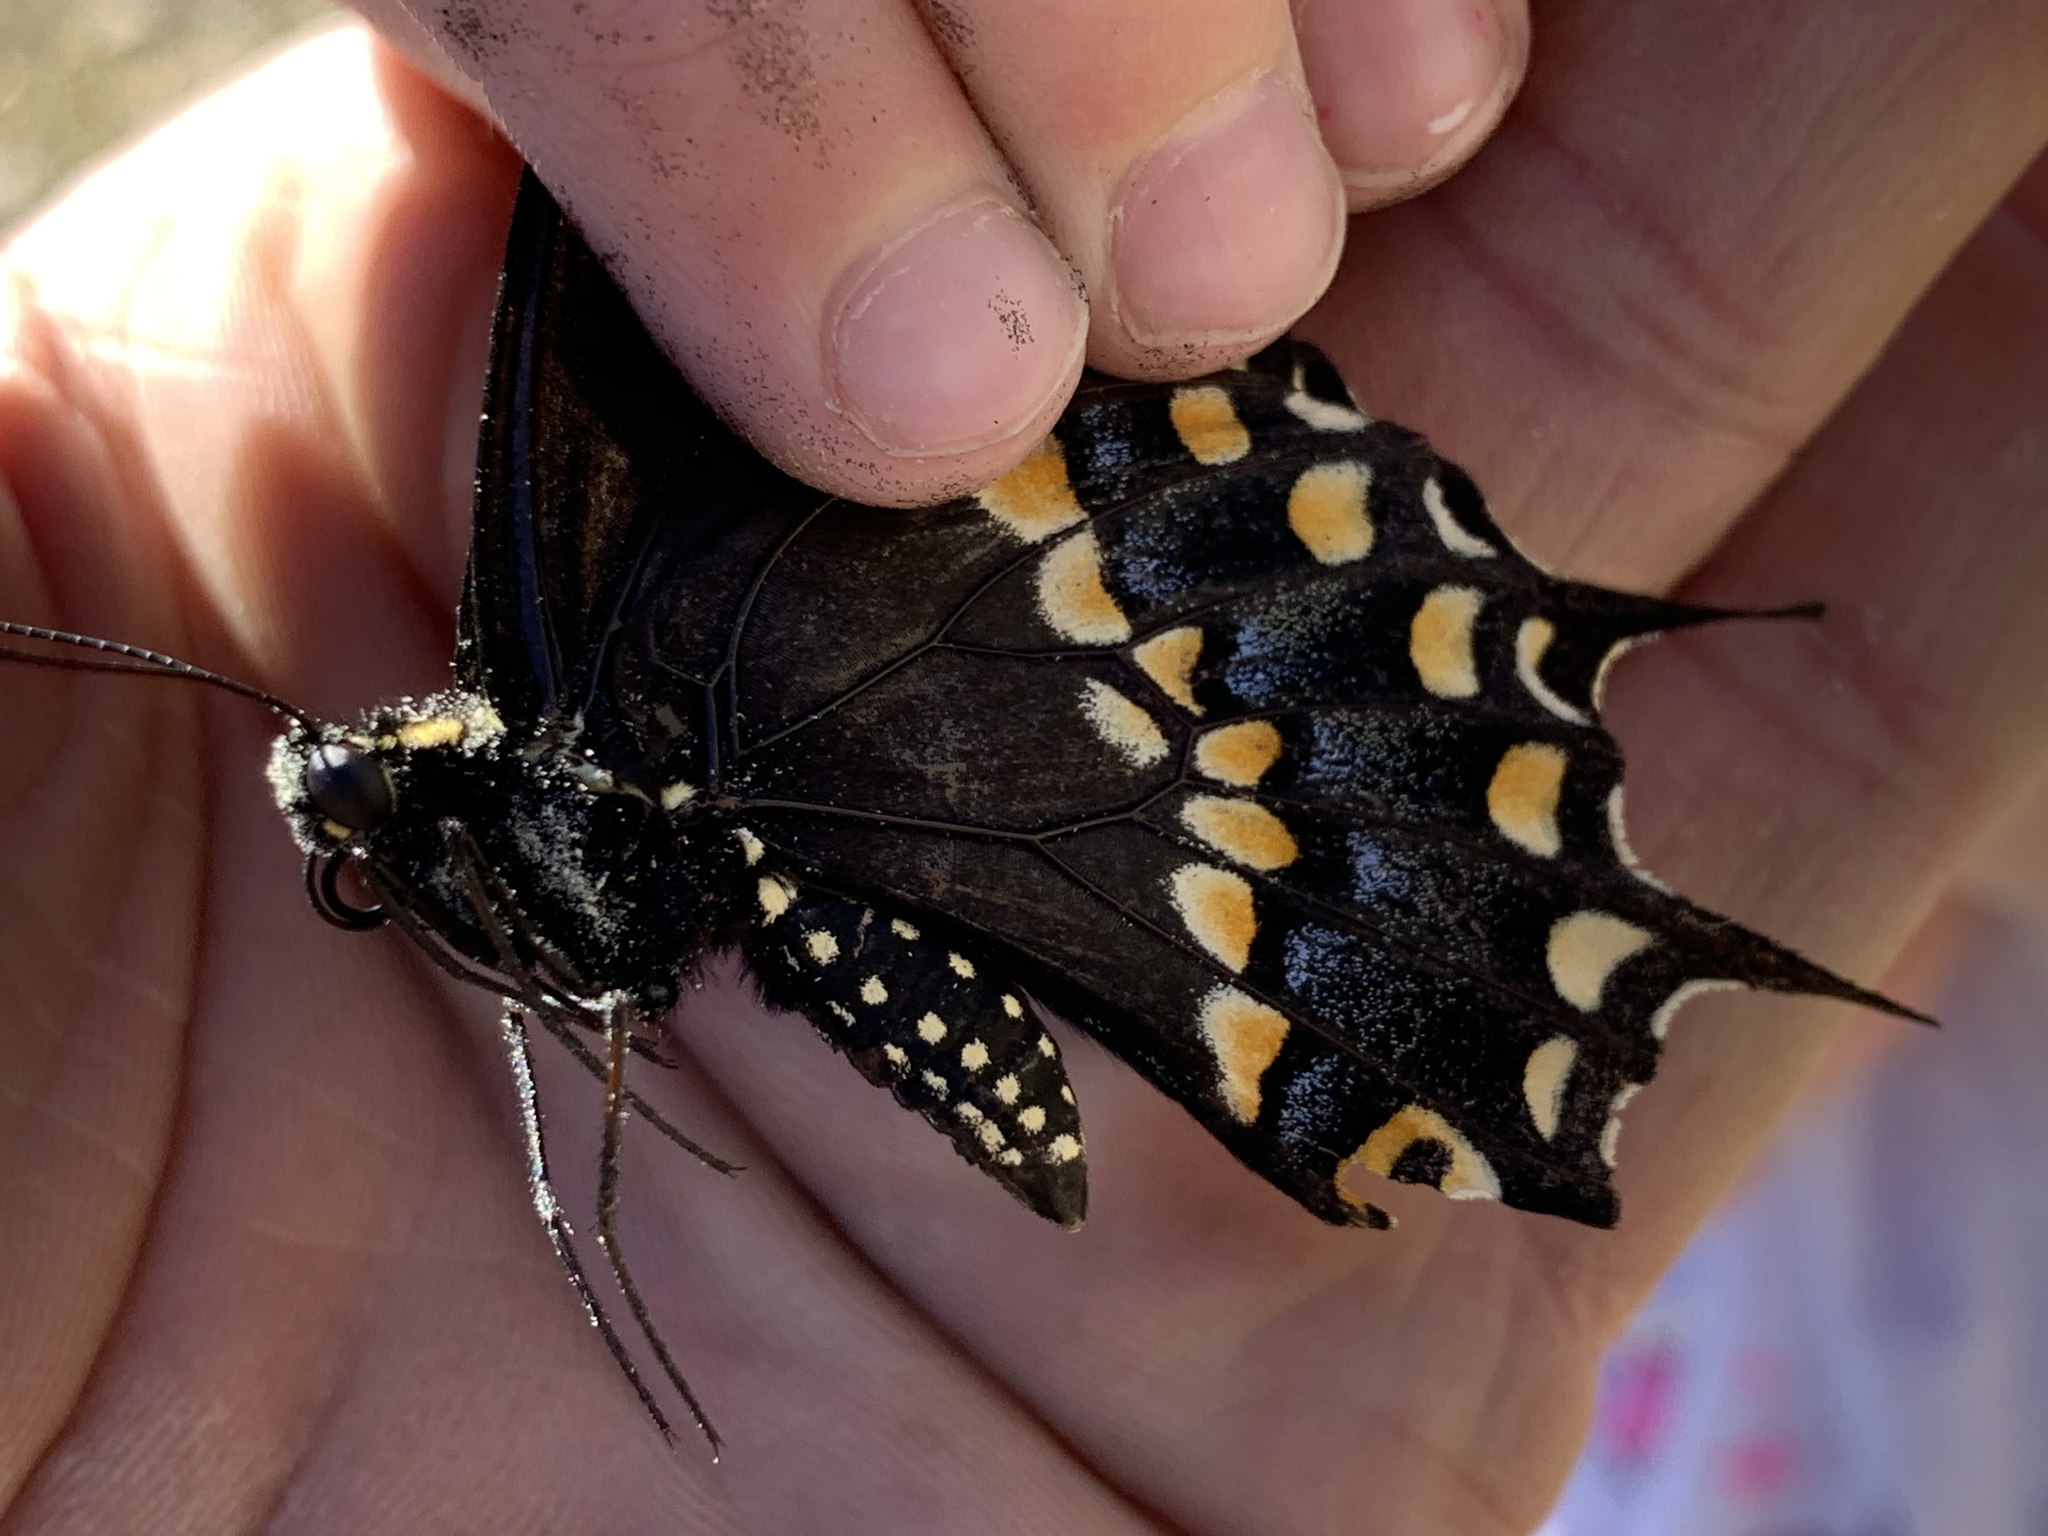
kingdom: Animalia
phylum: Arthropoda
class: Insecta
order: Lepidoptera
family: Papilionidae
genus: Papilio
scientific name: Papilio polyxenes
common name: Black swallowtail
